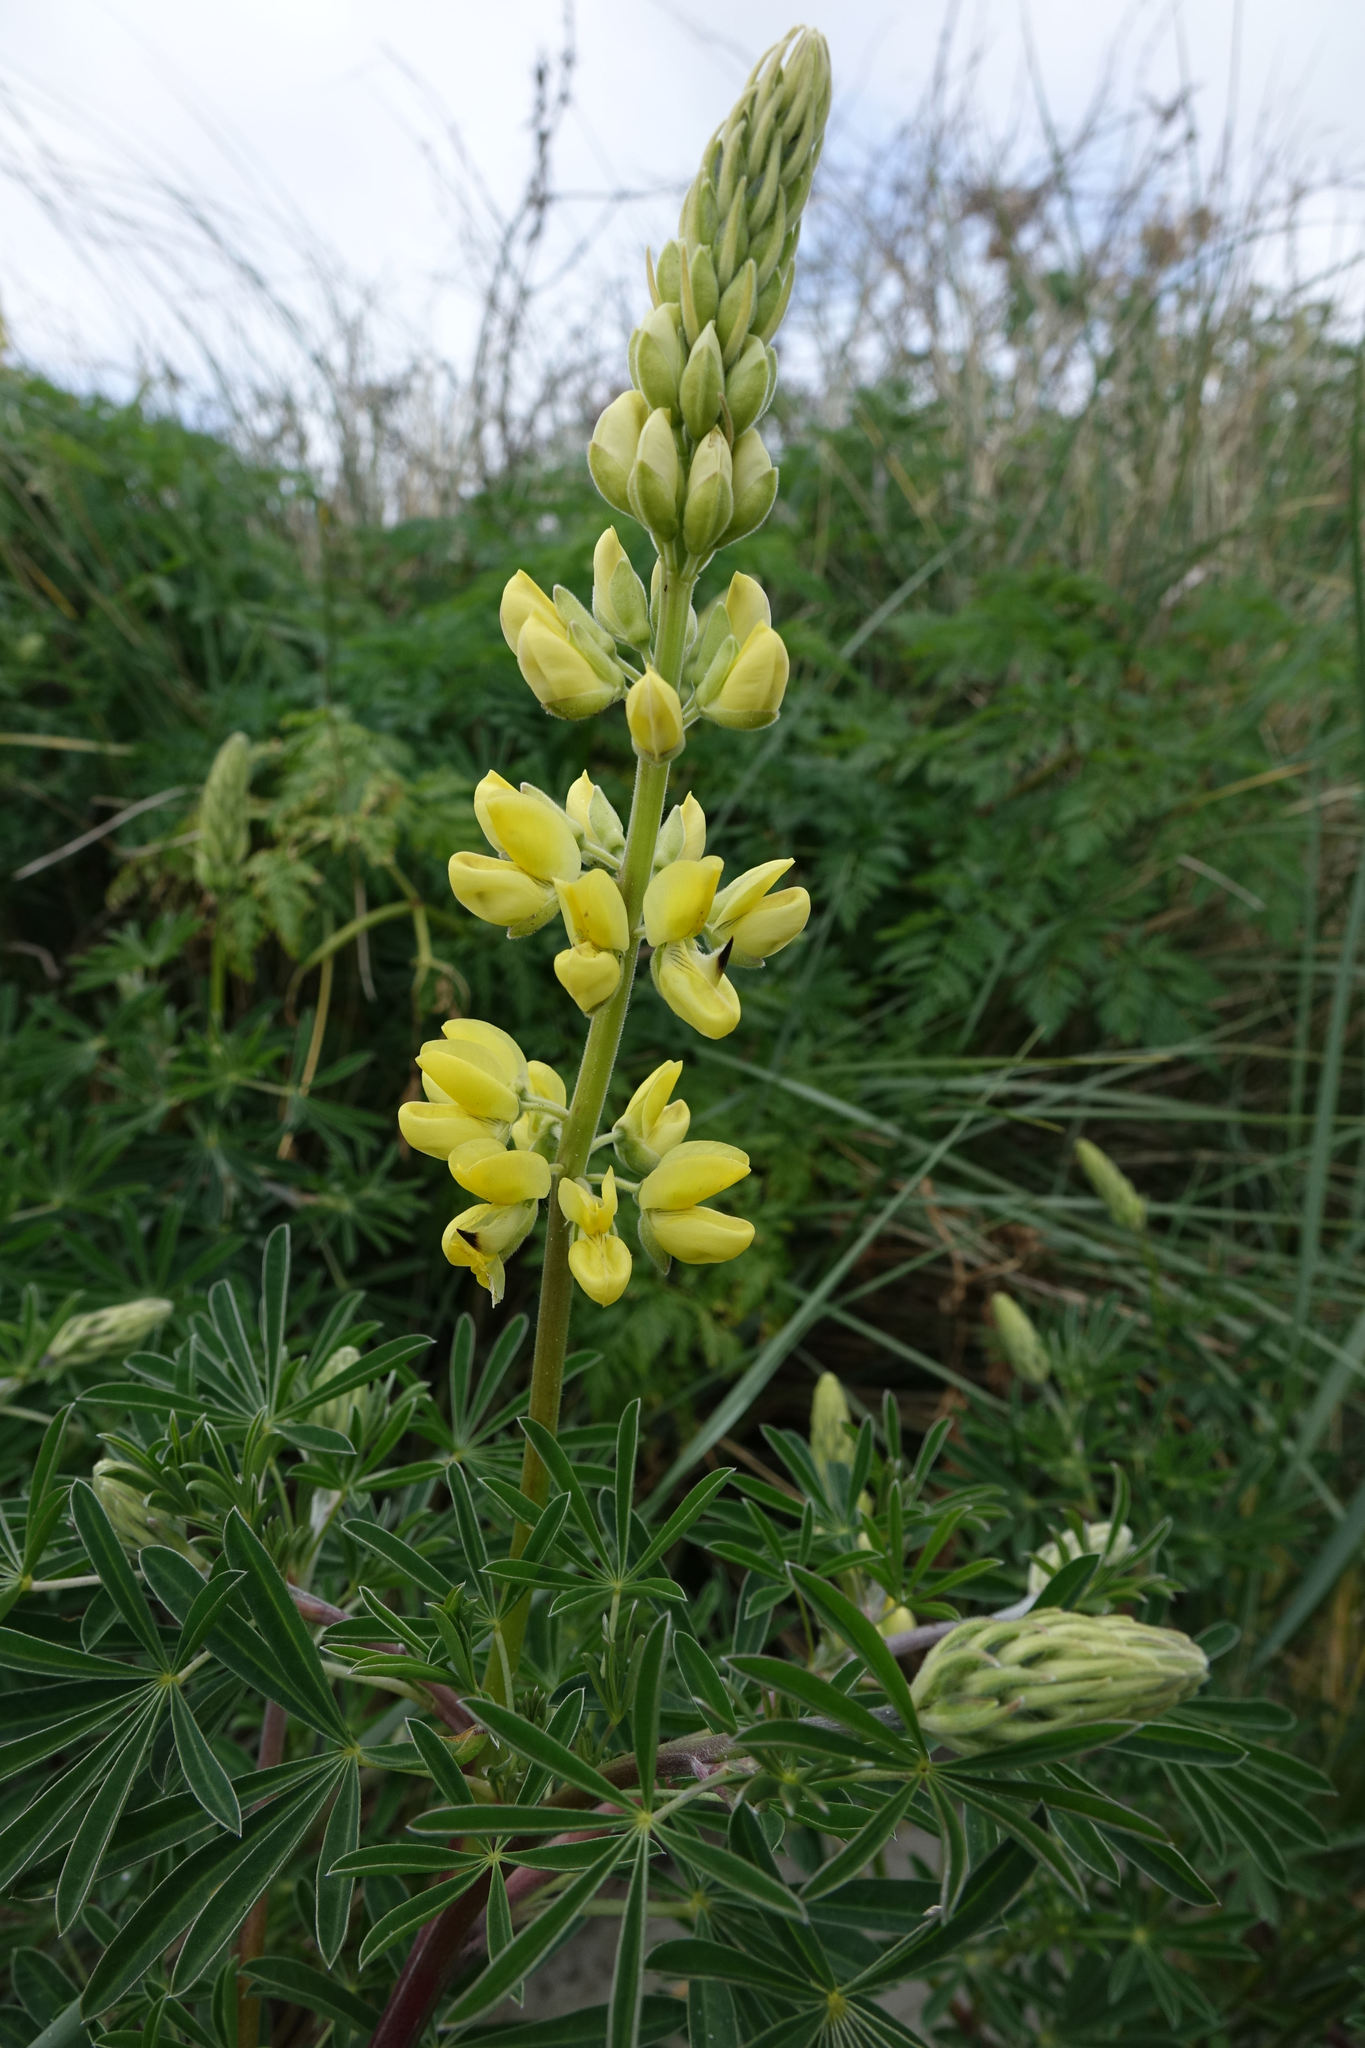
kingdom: Plantae
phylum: Tracheophyta
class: Magnoliopsida
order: Fabales
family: Fabaceae
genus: Lupinus
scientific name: Lupinus arboreus
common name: Yellow bush lupine
